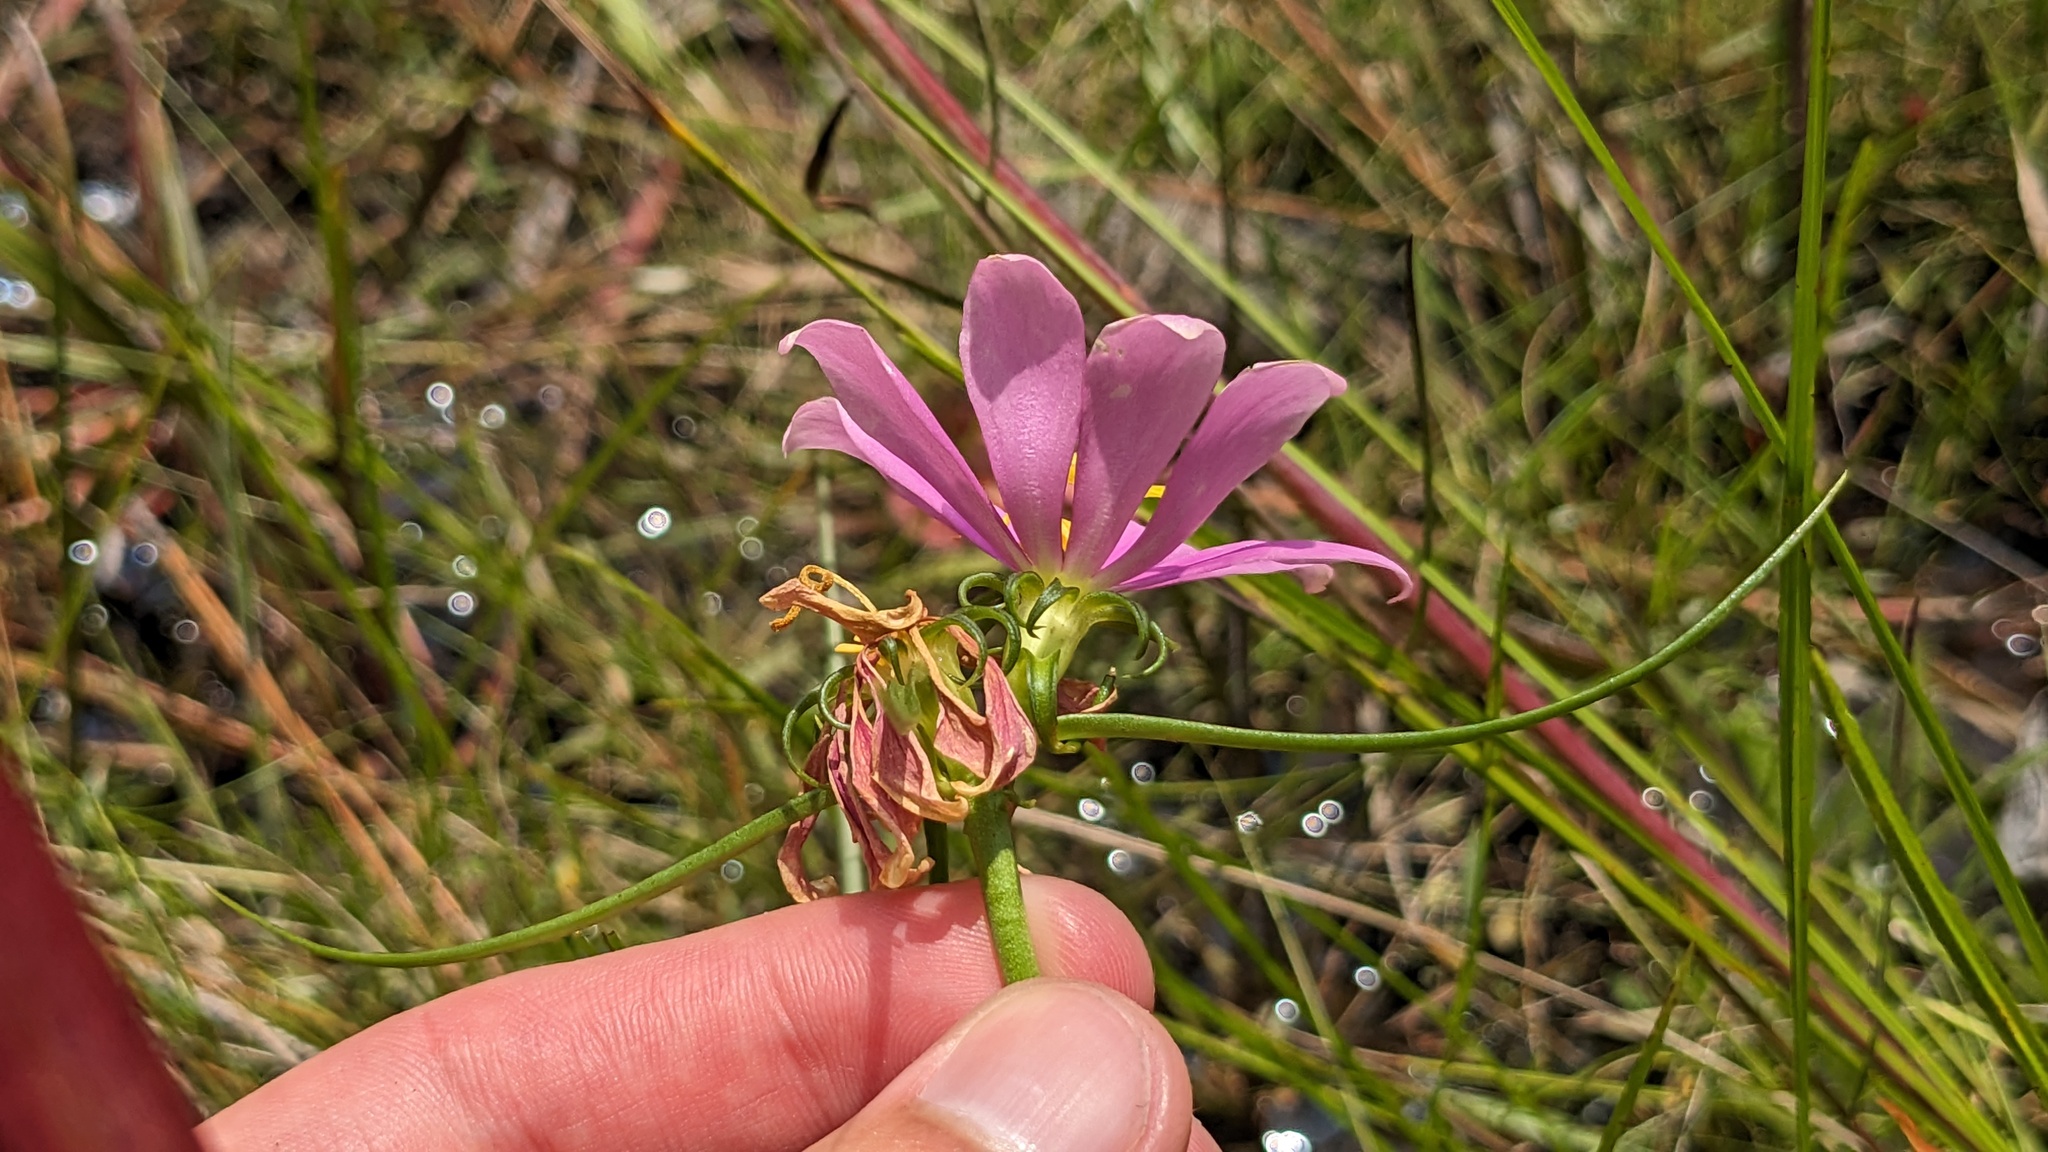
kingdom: Plantae
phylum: Tracheophyta
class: Magnoliopsida
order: Gentianales
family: Gentianaceae
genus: Sabatia
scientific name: Sabatia gentianoides
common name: Pinewoods rose-gentian
